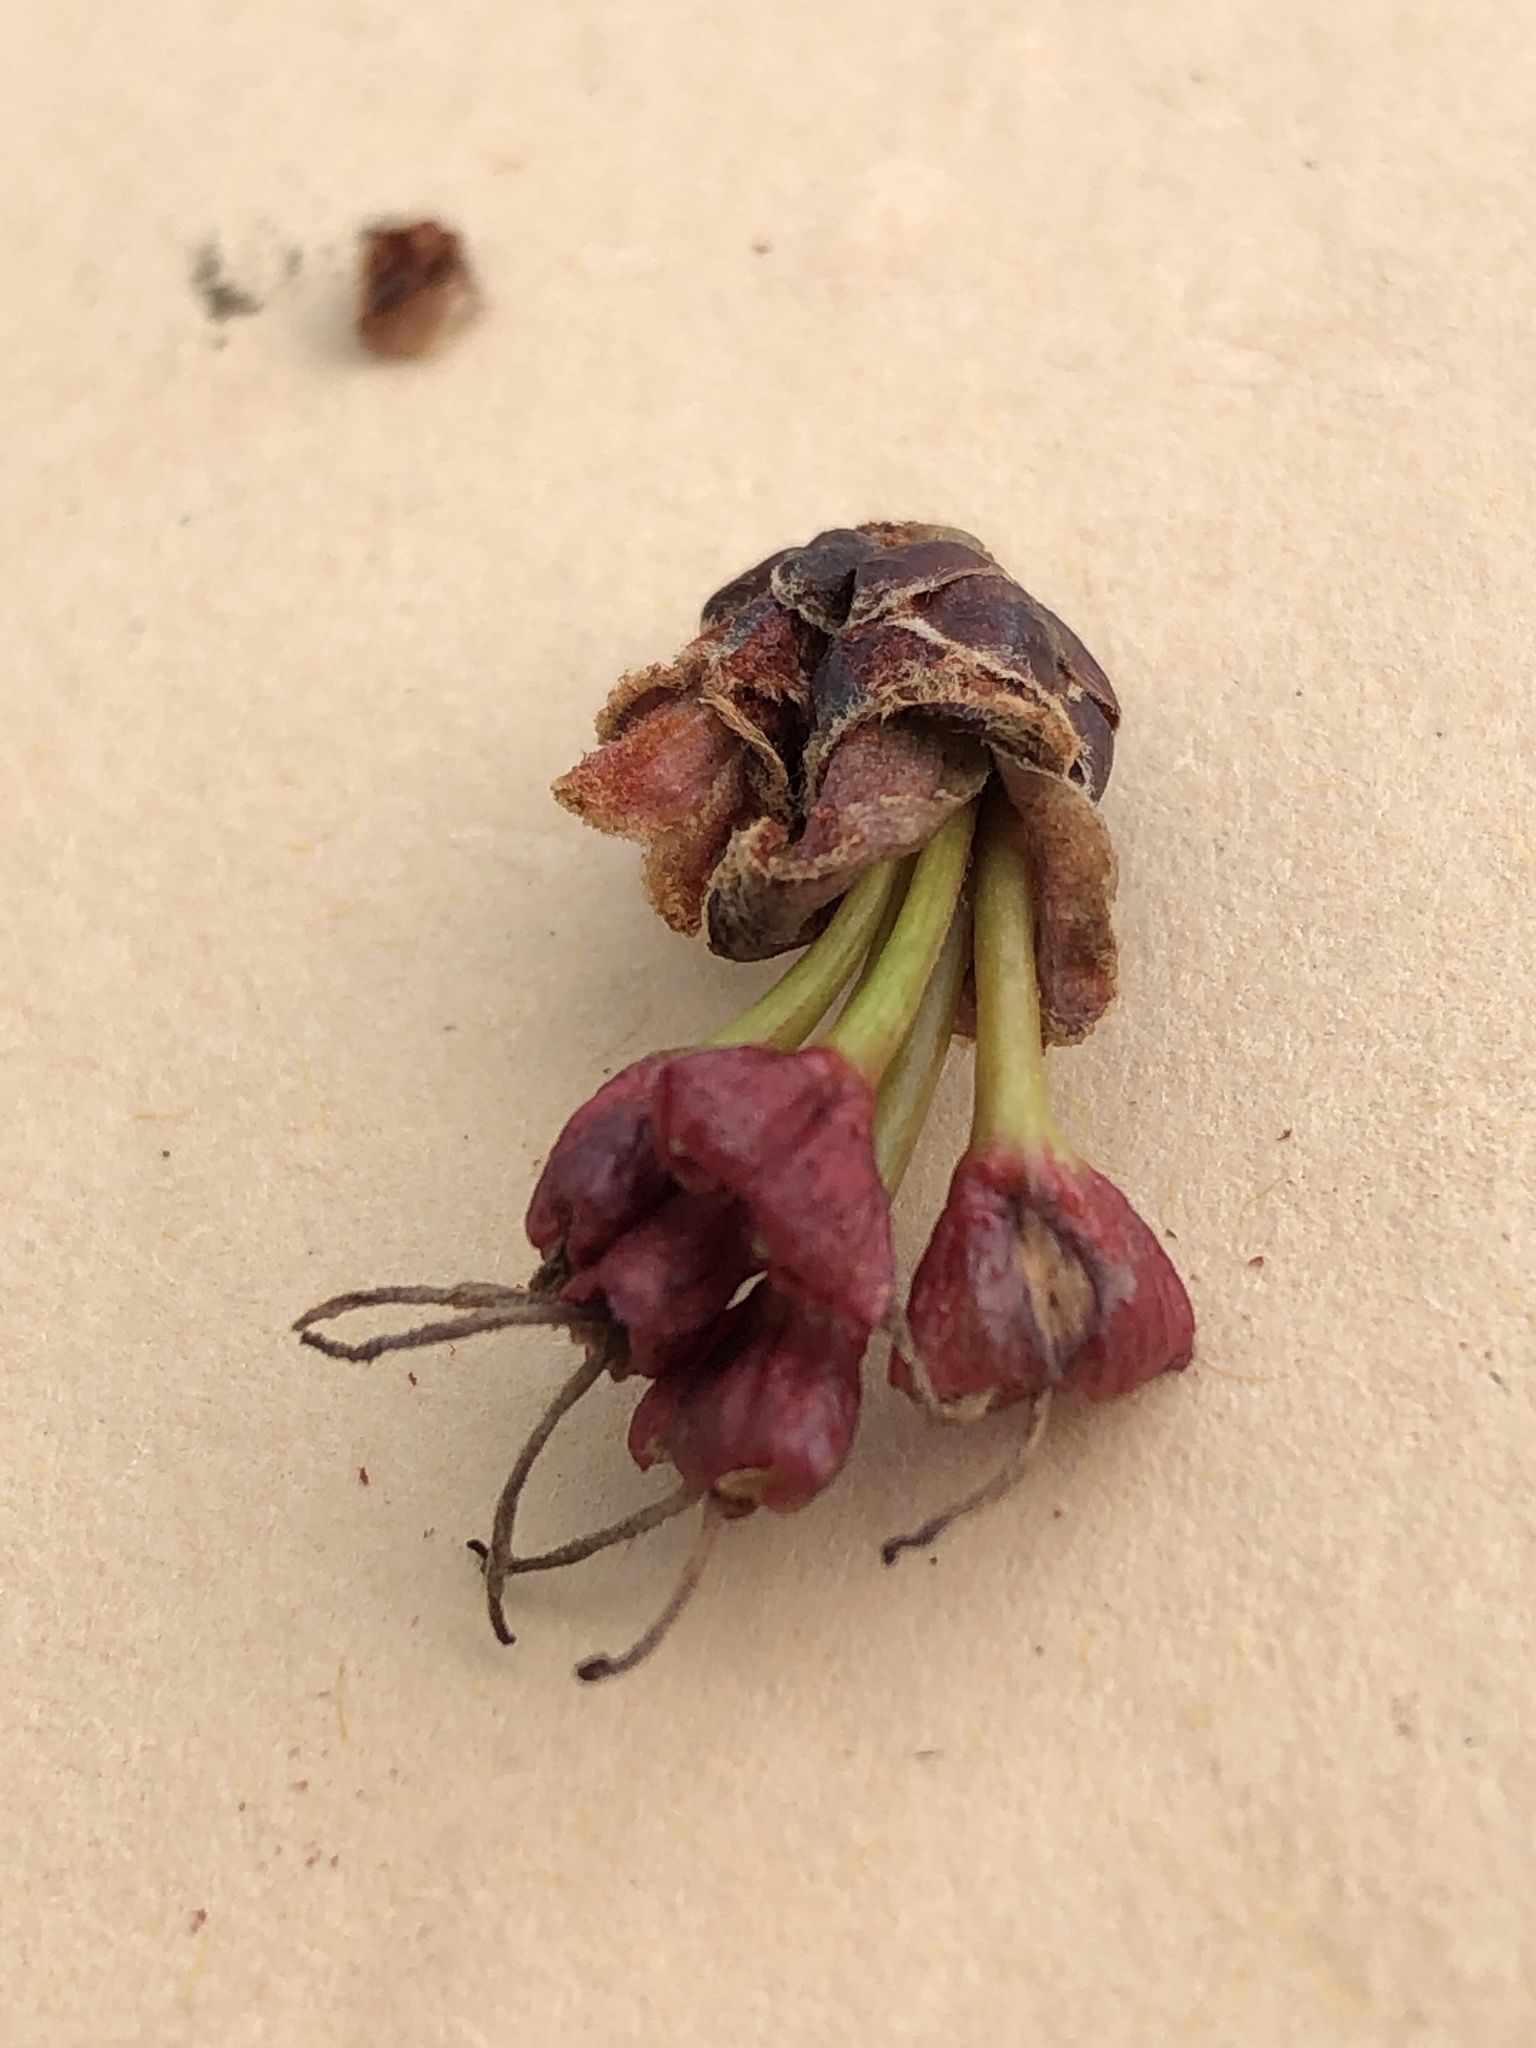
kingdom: Plantae
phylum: Tracheophyta
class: Magnoliopsida
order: Sapindales
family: Sapindaceae
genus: Acer
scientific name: Acer rubrum
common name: Red maple
